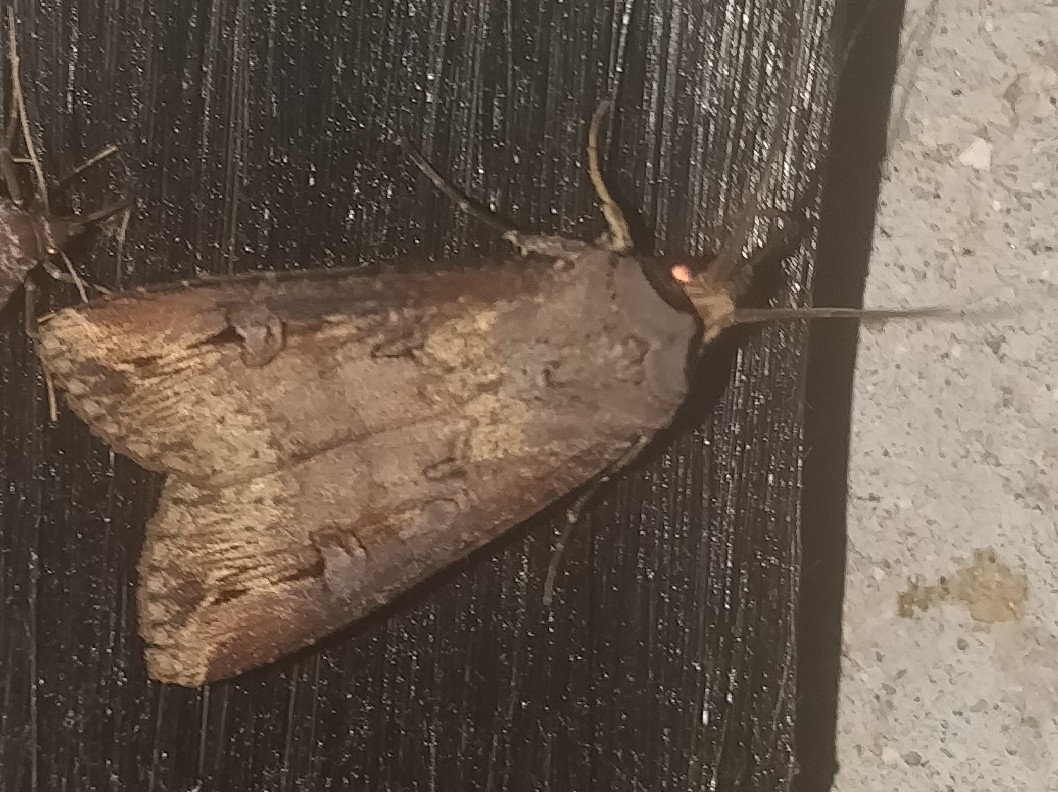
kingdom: Animalia
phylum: Arthropoda
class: Insecta
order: Lepidoptera
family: Noctuidae
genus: Agrotis
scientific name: Agrotis ipsilon
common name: Dark sword-grass
